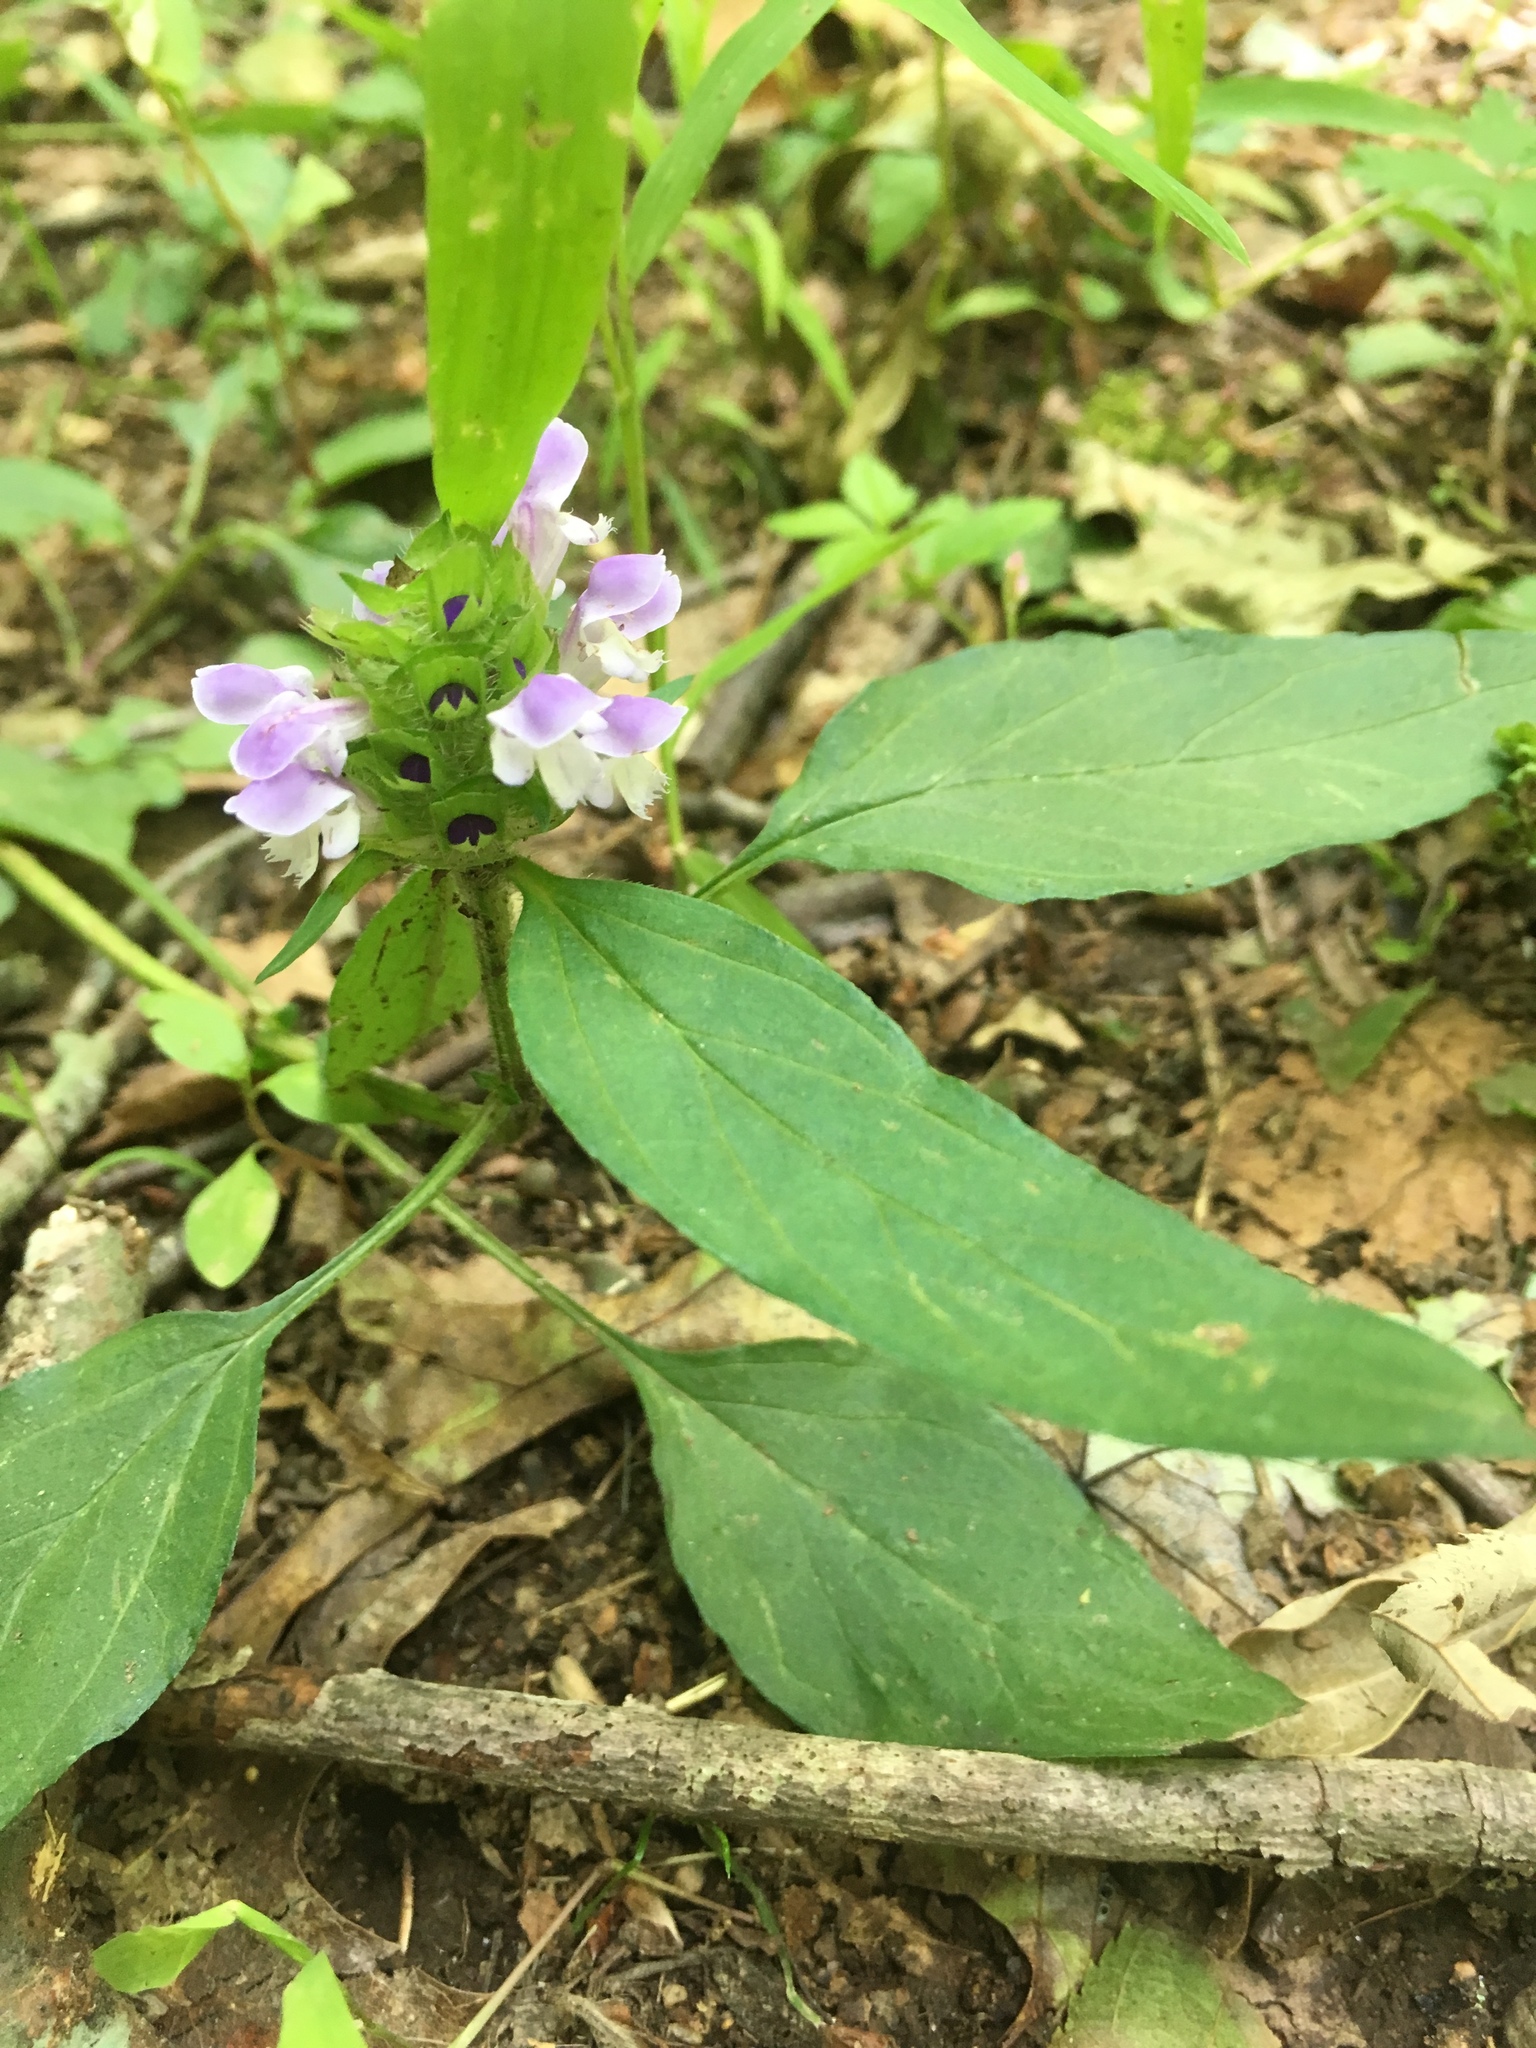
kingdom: Plantae
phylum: Tracheophyta
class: Magnoliopsida
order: Lamiales
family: Lamiaceae
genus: Prunella
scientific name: Prunella vulgaris
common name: Heal-all
